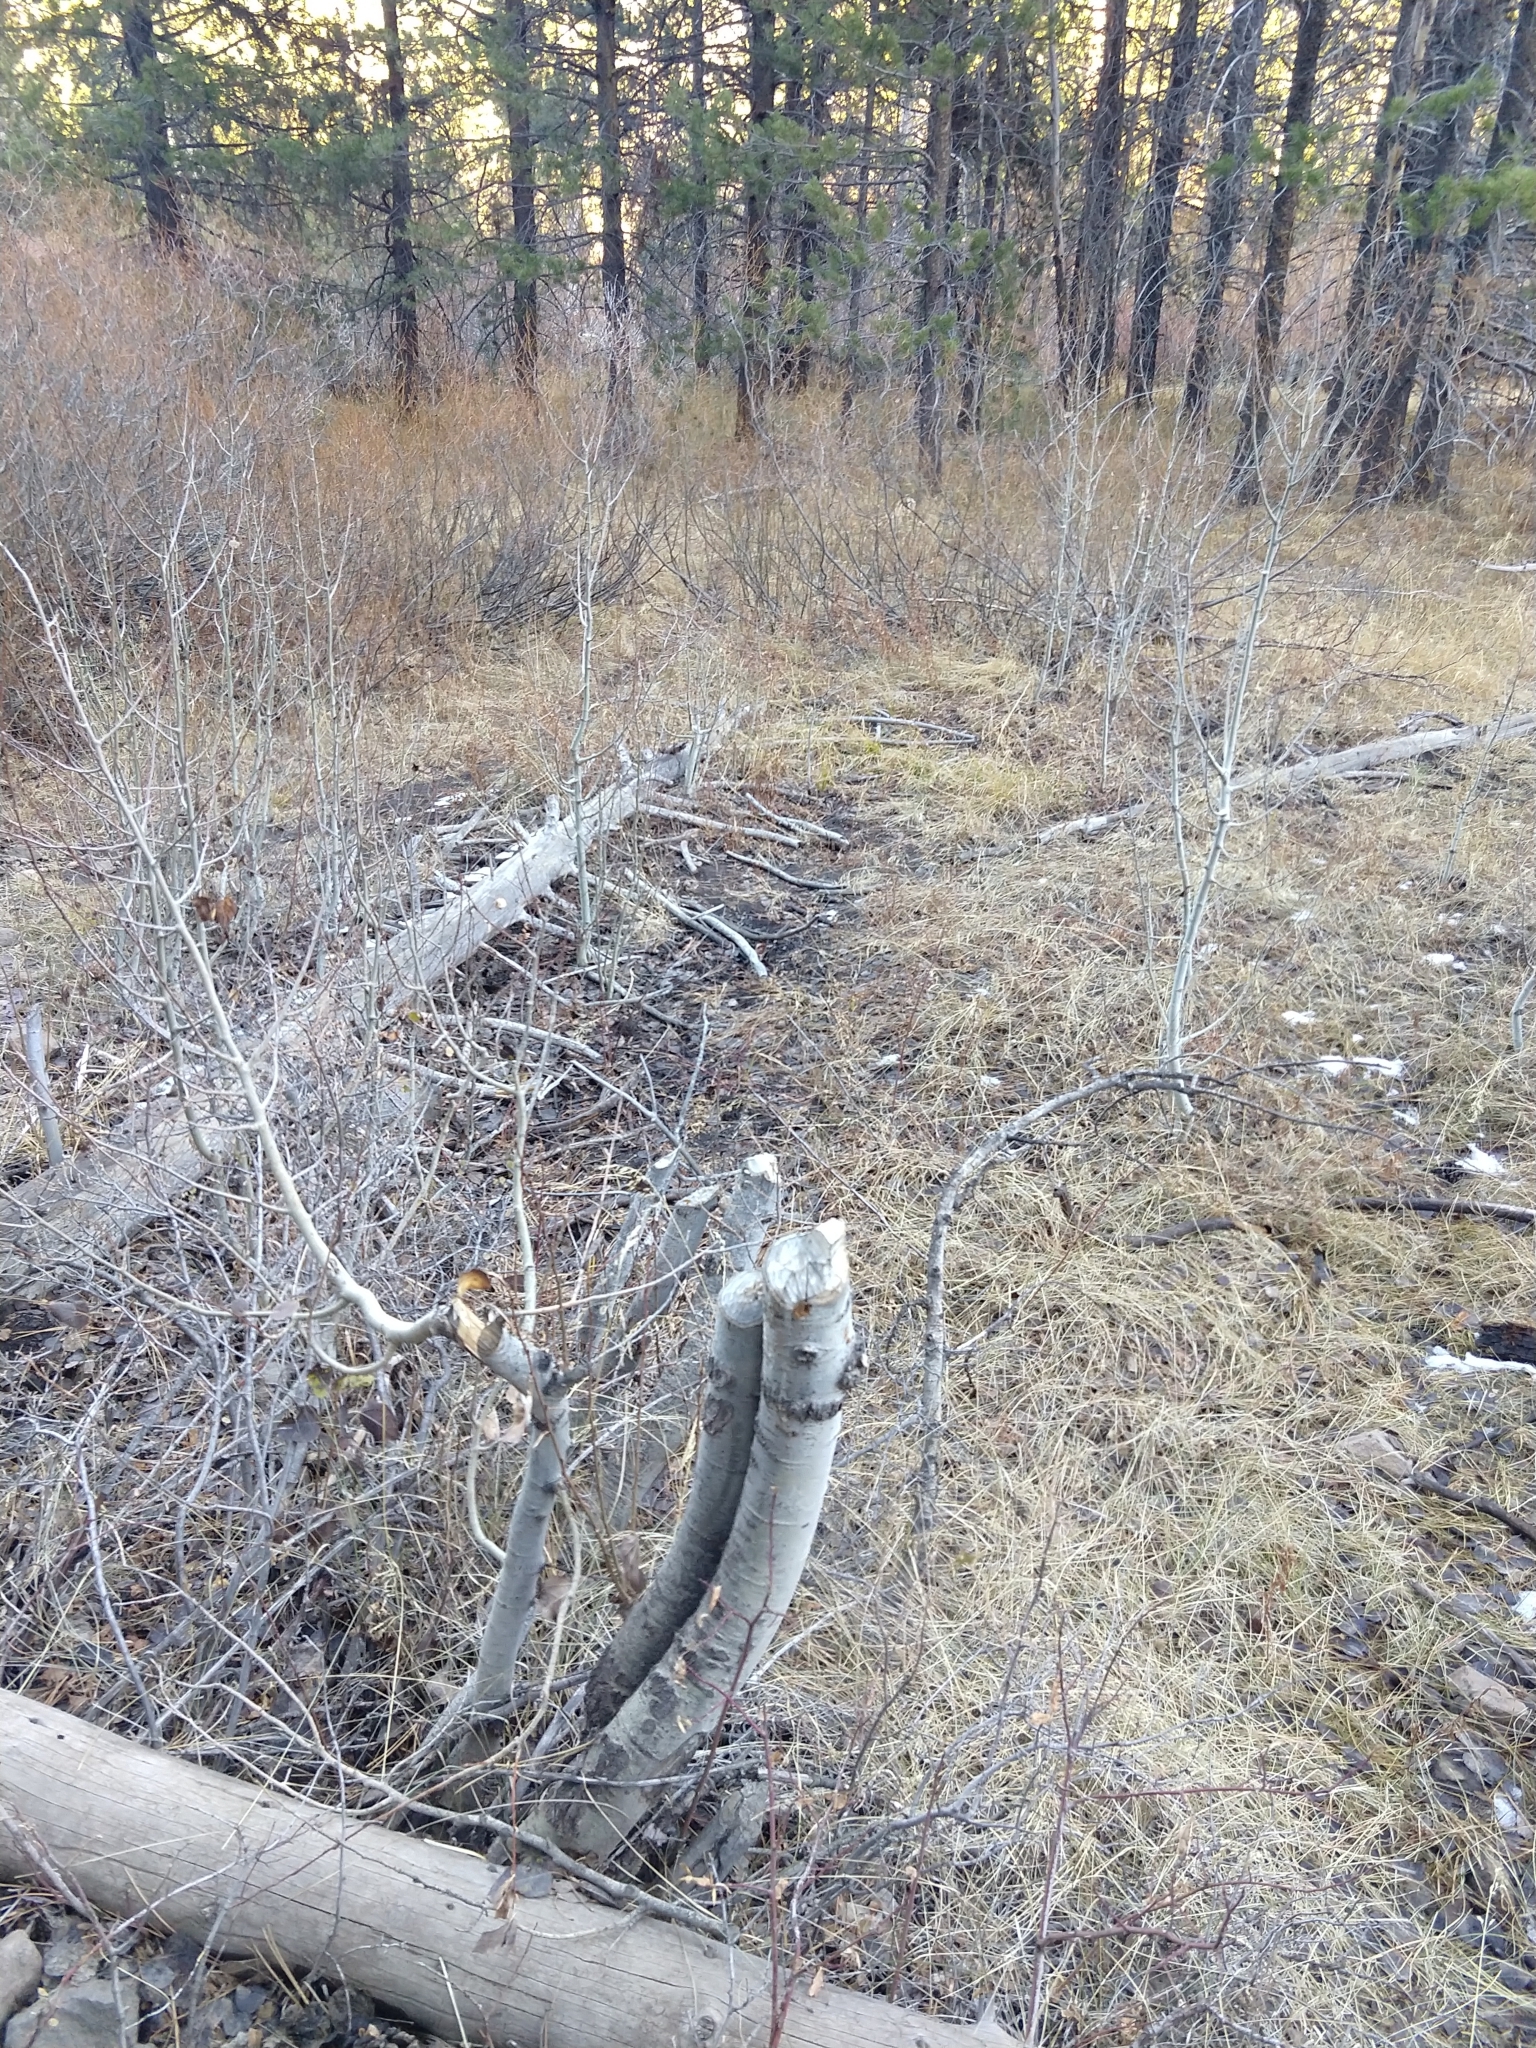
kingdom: Animalia
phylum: Chordata
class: Mammalia
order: Rodentia
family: Castoridae
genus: Castor
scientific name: Castor canadensis
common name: American beaver
